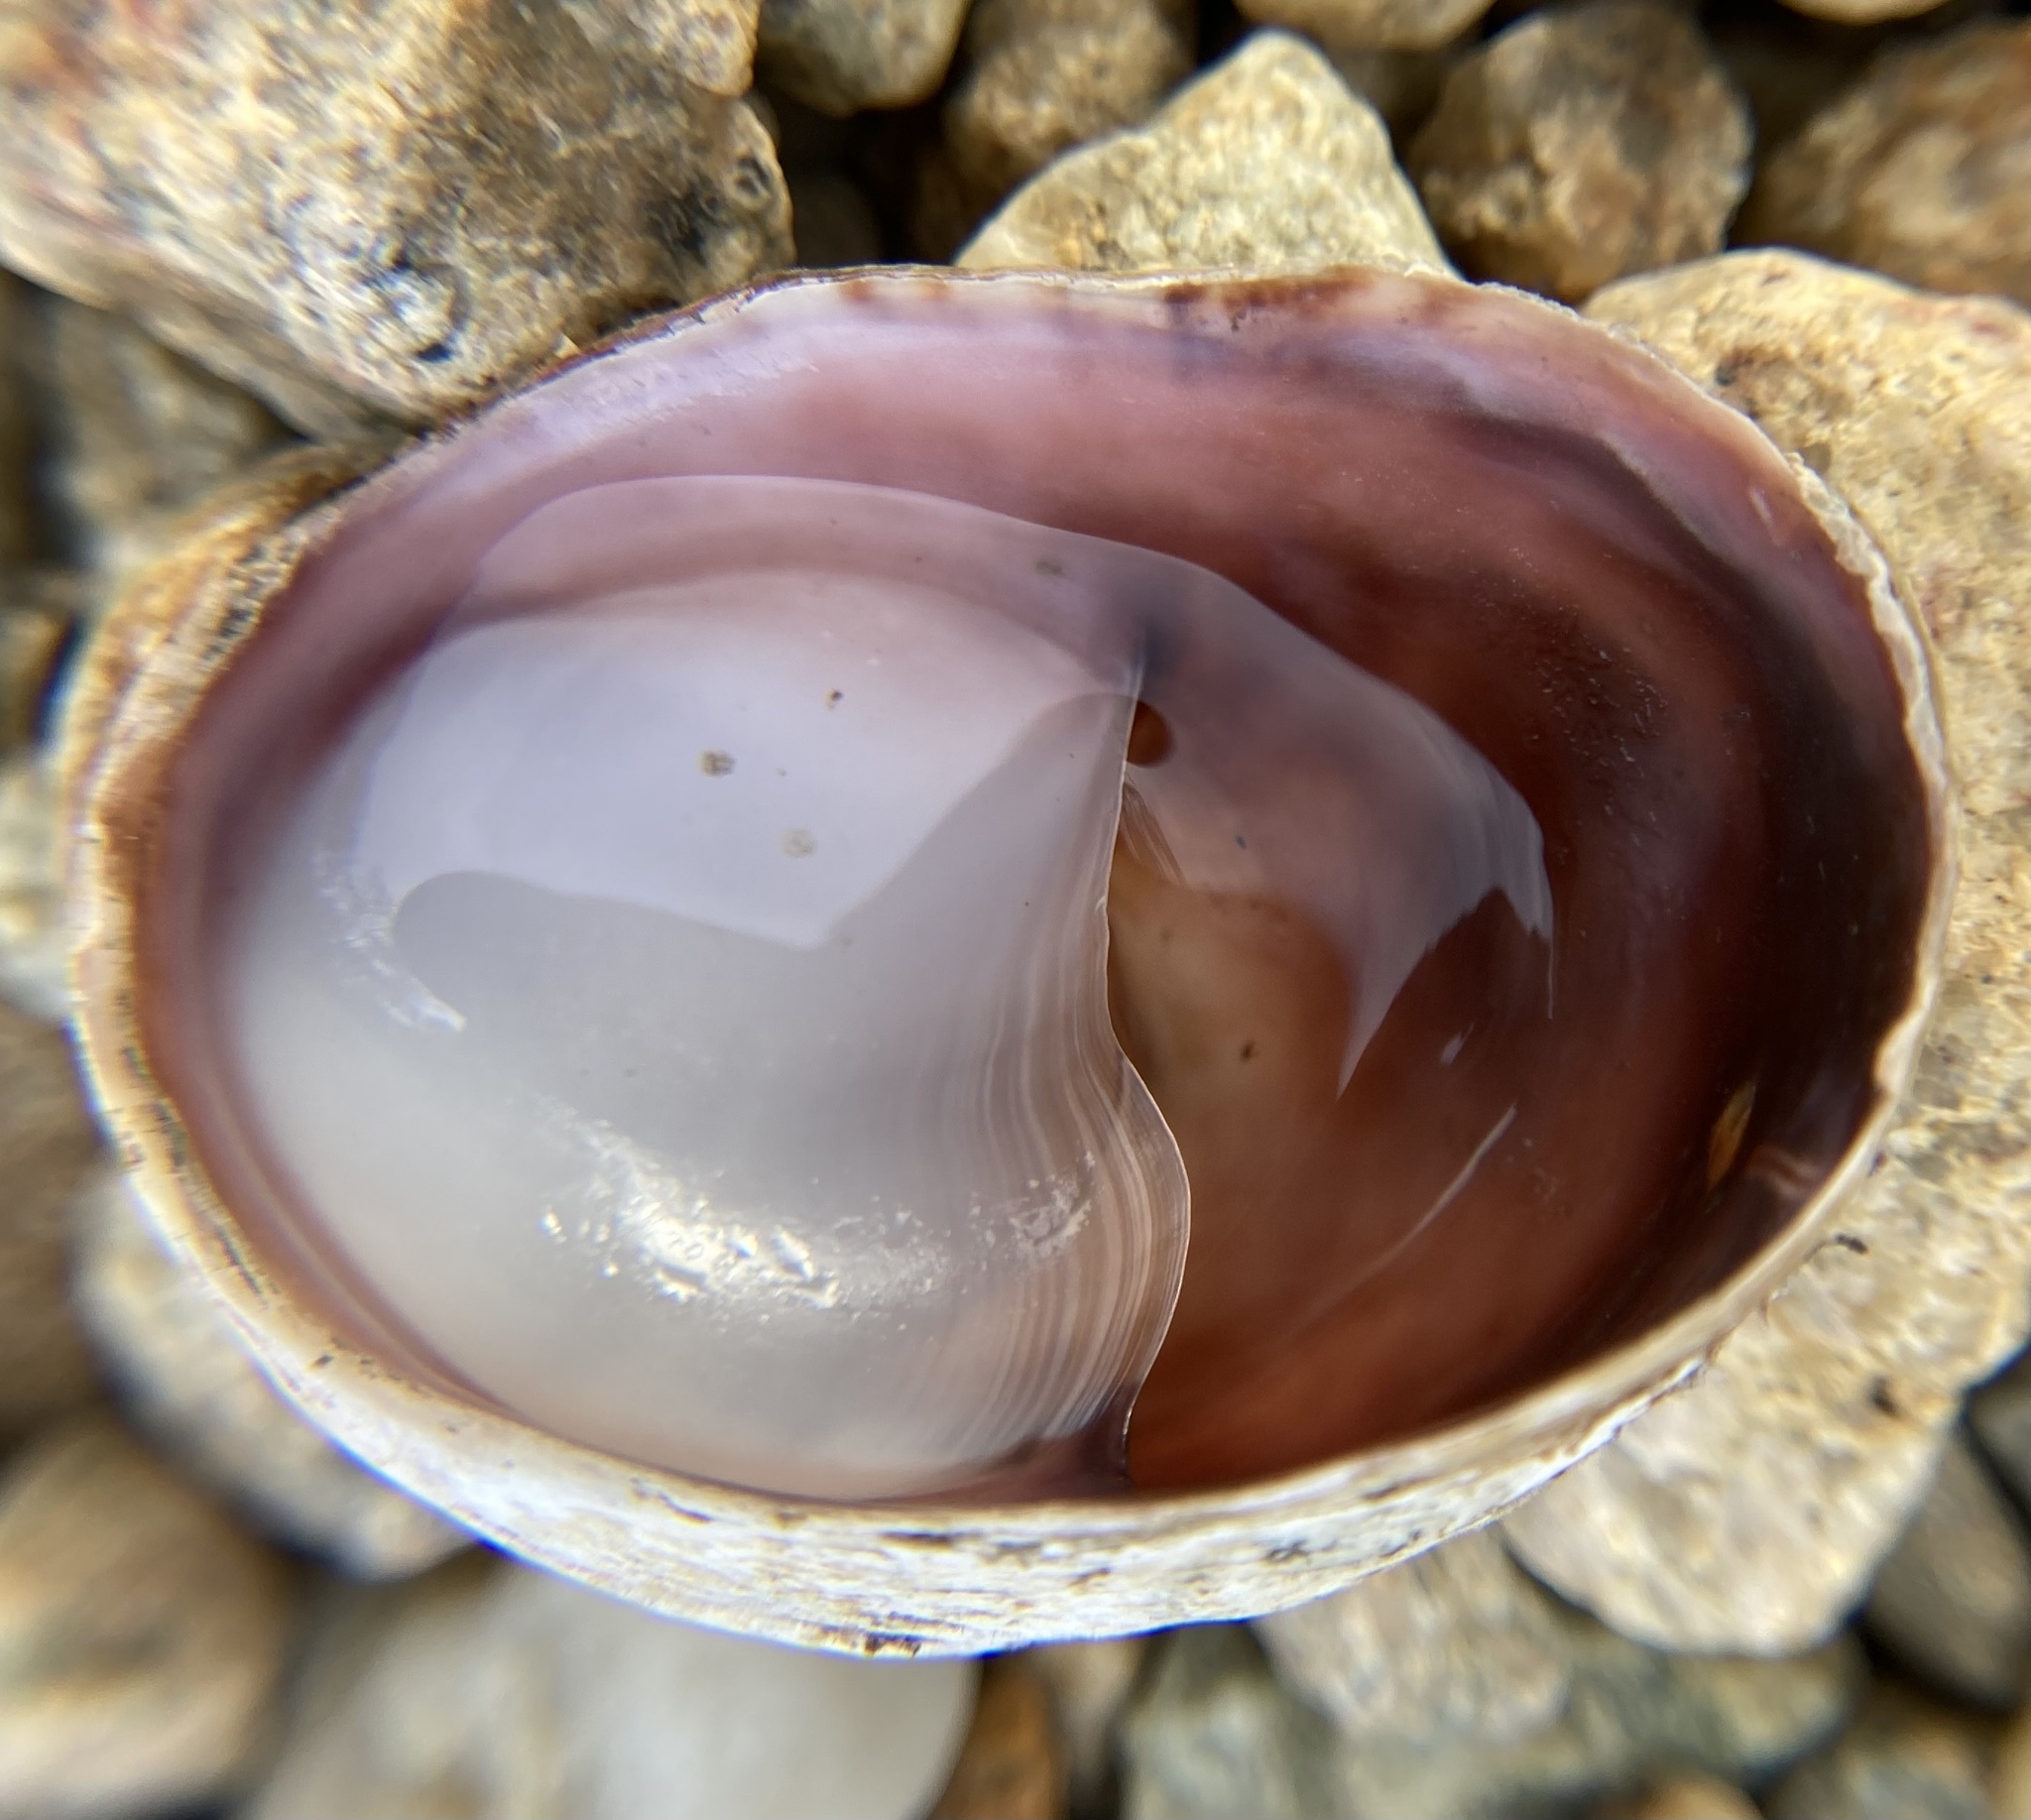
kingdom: Animalia
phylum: Mollusca
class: Gastropoda
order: Littorinimorpha
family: Calyptraeidae
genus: Crepidula
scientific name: Crepidula fornicata
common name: Slipper limpet
